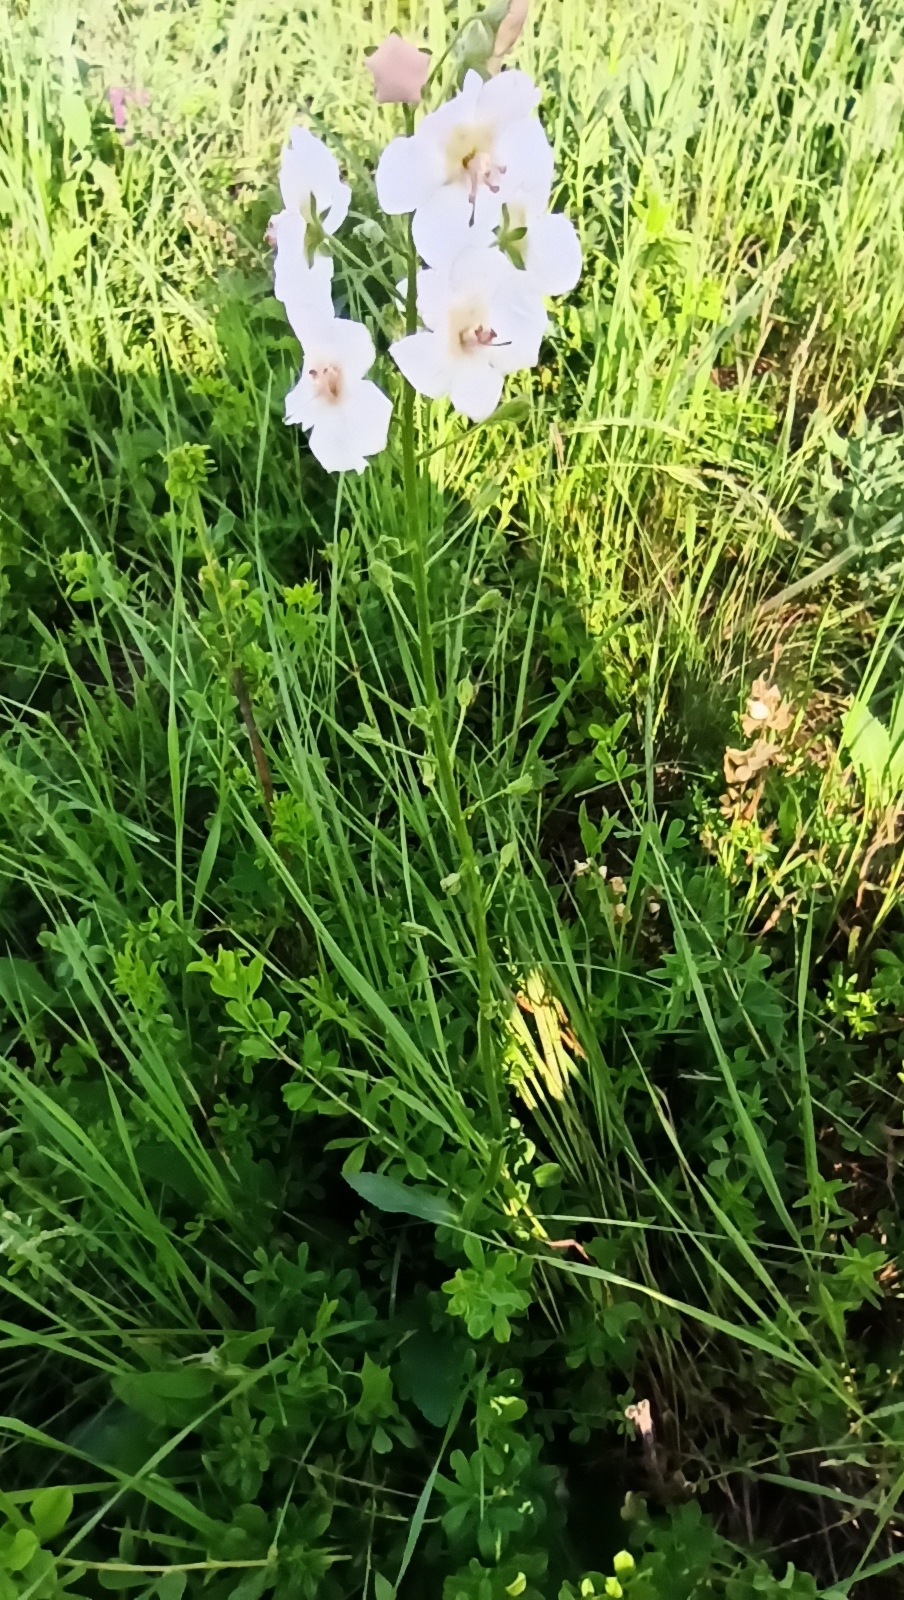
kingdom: Plantae
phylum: Tracheophyta
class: Magnoliopsida
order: Lamiales
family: Scrophulariaceae
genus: Verbascum
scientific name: Verbascum phoeniceum
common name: Purple mullein
